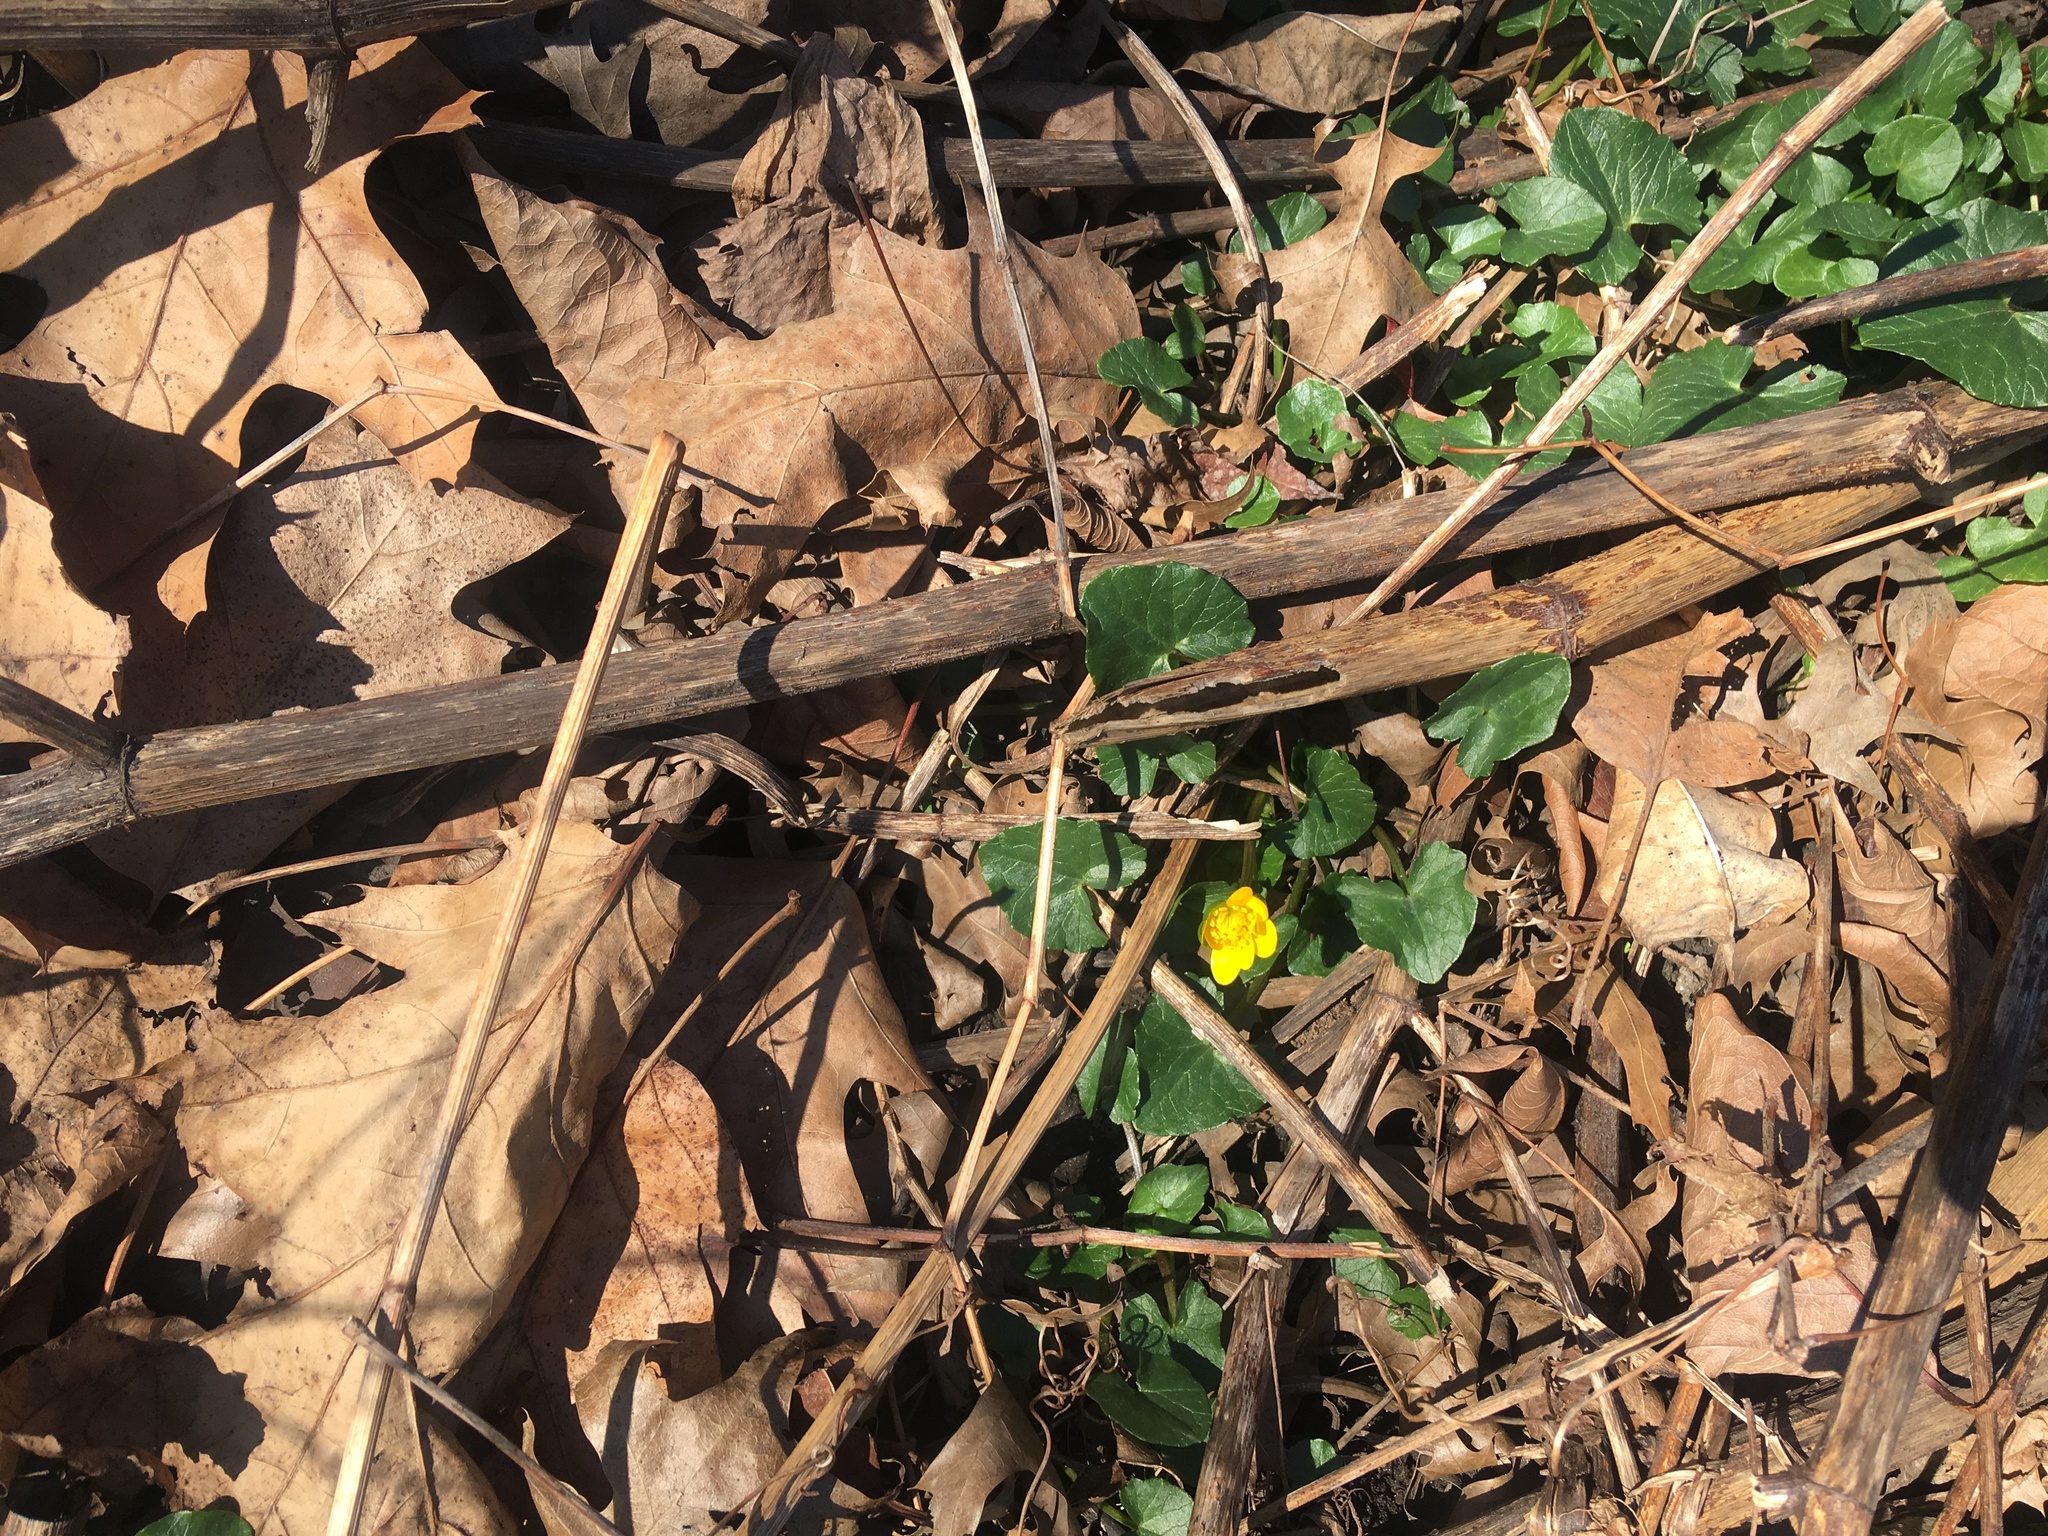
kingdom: Plantae
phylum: Tracheophyta
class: Magnoliopsida
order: Ranunculales
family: Ranunculaceae
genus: Ficaria
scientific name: Ficaria verna
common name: Lesser celandine
